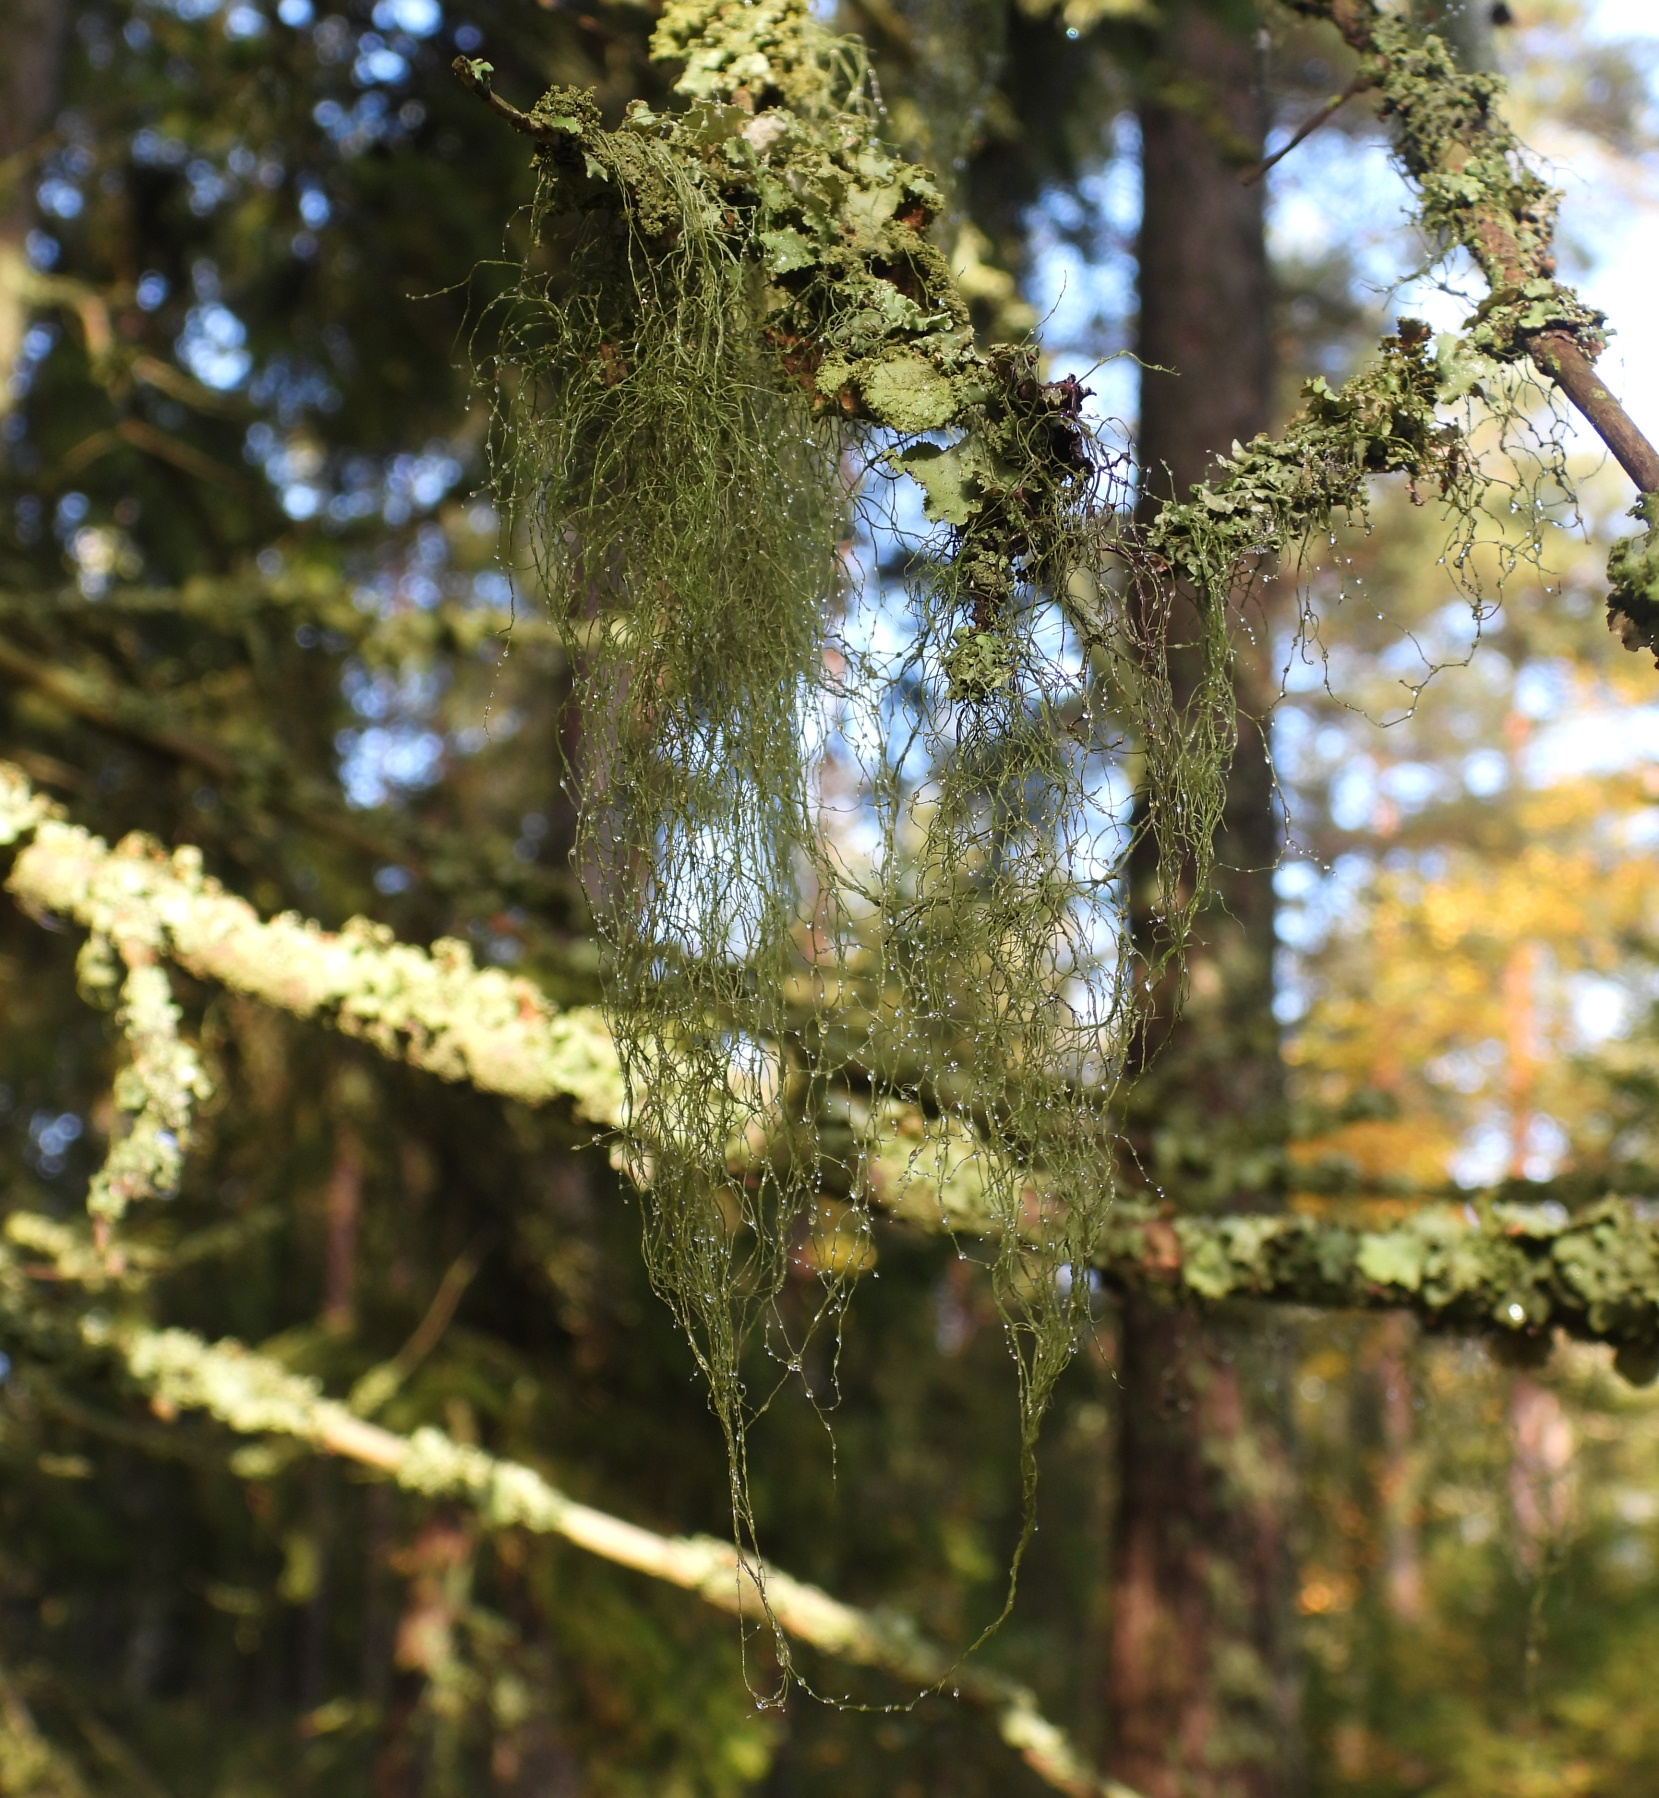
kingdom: Fungi
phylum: Ascomycota
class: Lecanoromycetes
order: Lecanorales
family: Parmeliaceae
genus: Bryoria
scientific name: Bryoria fuscescens
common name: Pale-footed horsehair lichen
